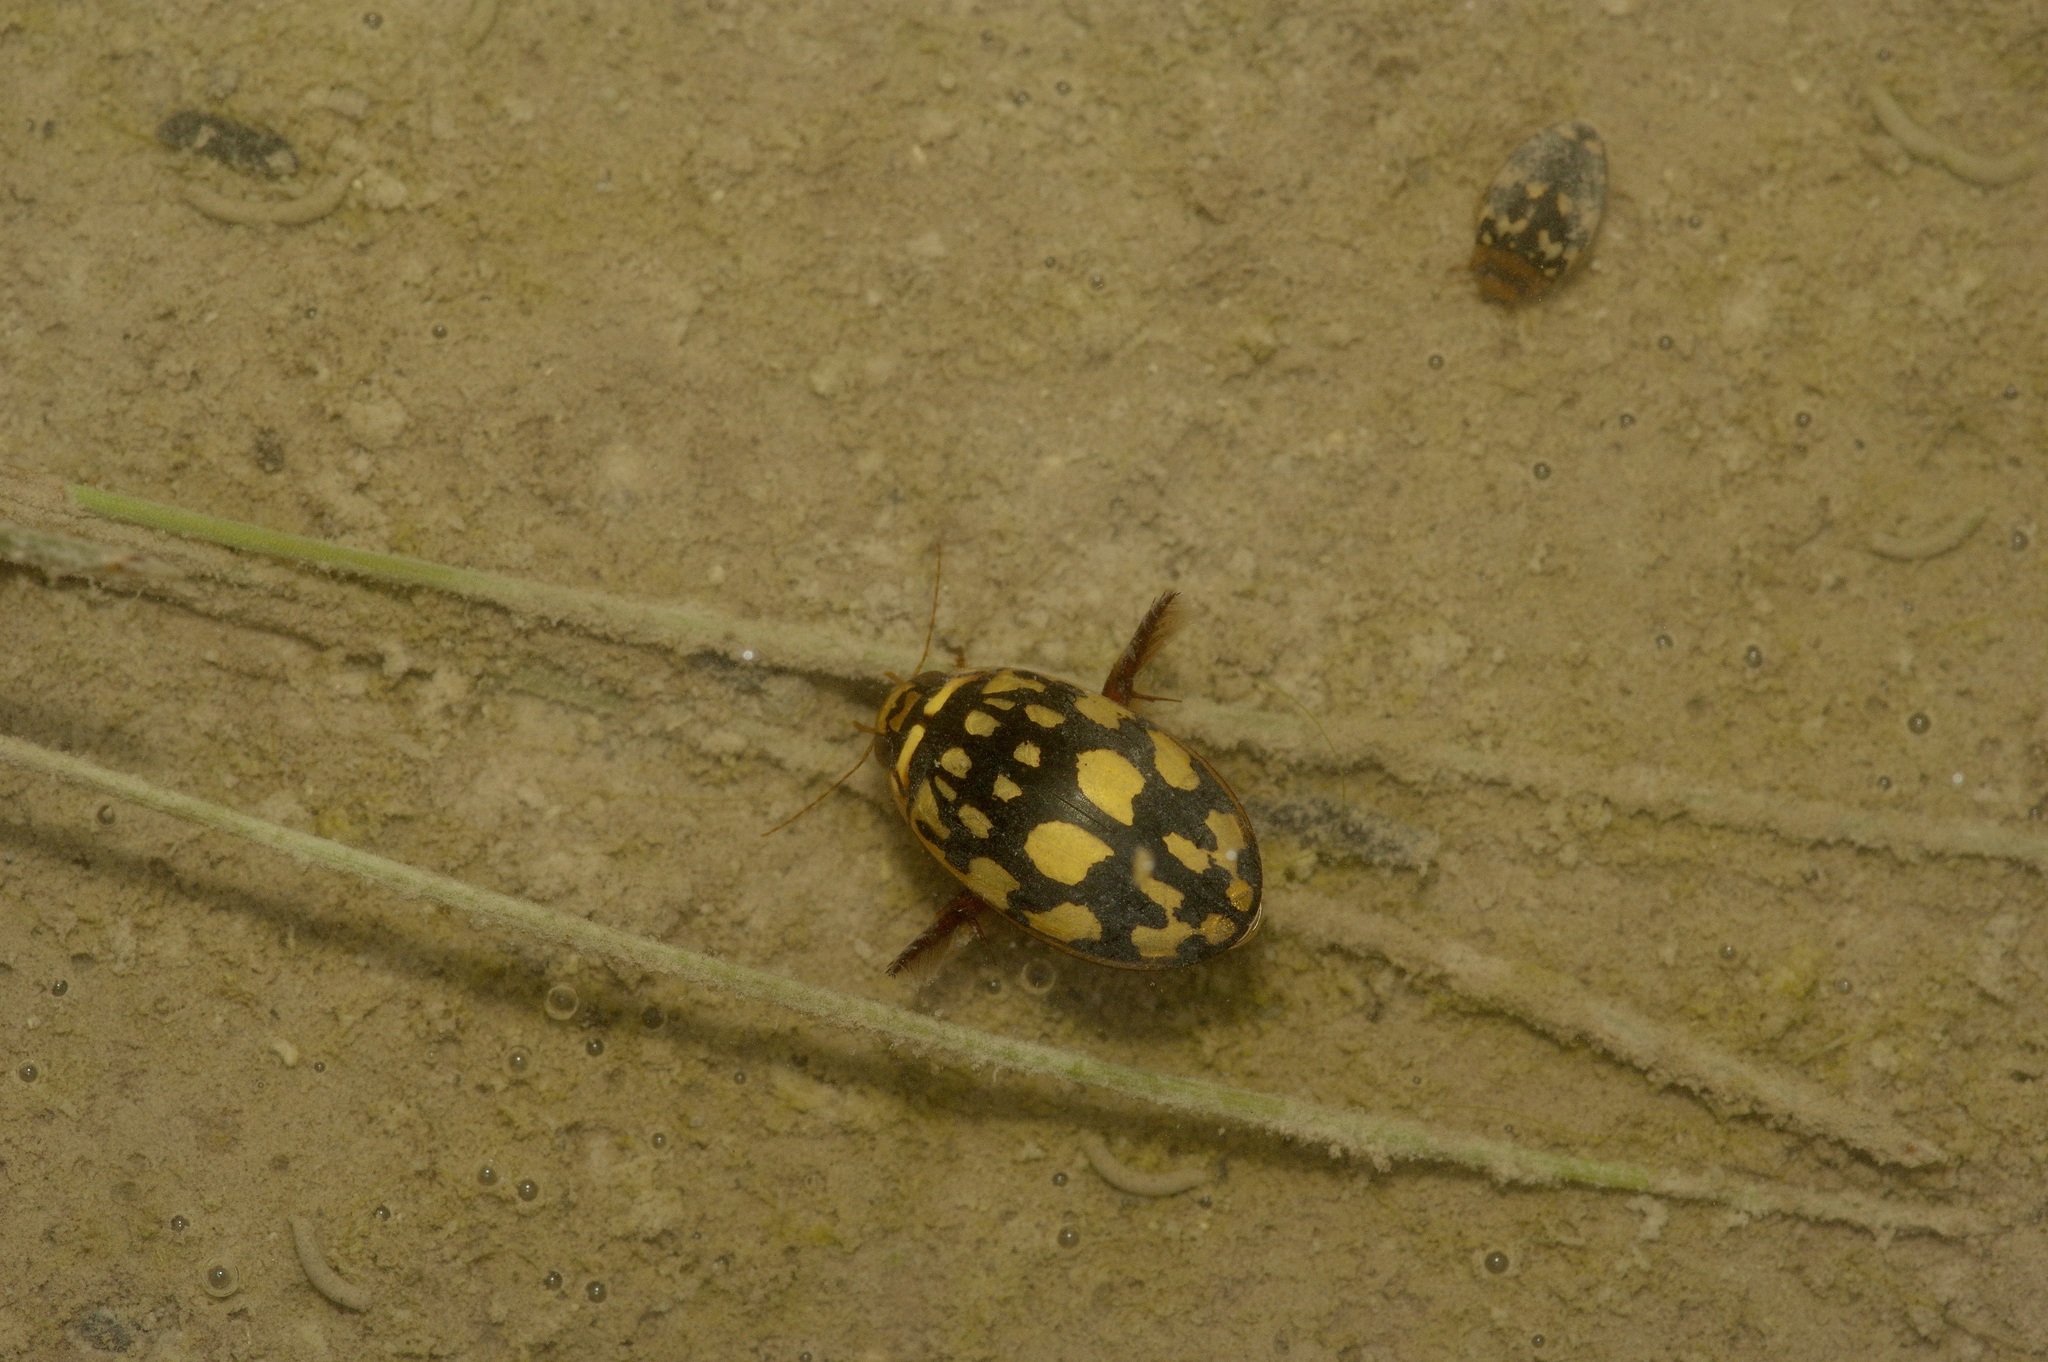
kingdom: Animalia
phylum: Arthropoda
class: Insecta
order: Coleoptera
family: Dytiscidae
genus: Thermonectus
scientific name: Thermonectus marmoratus
